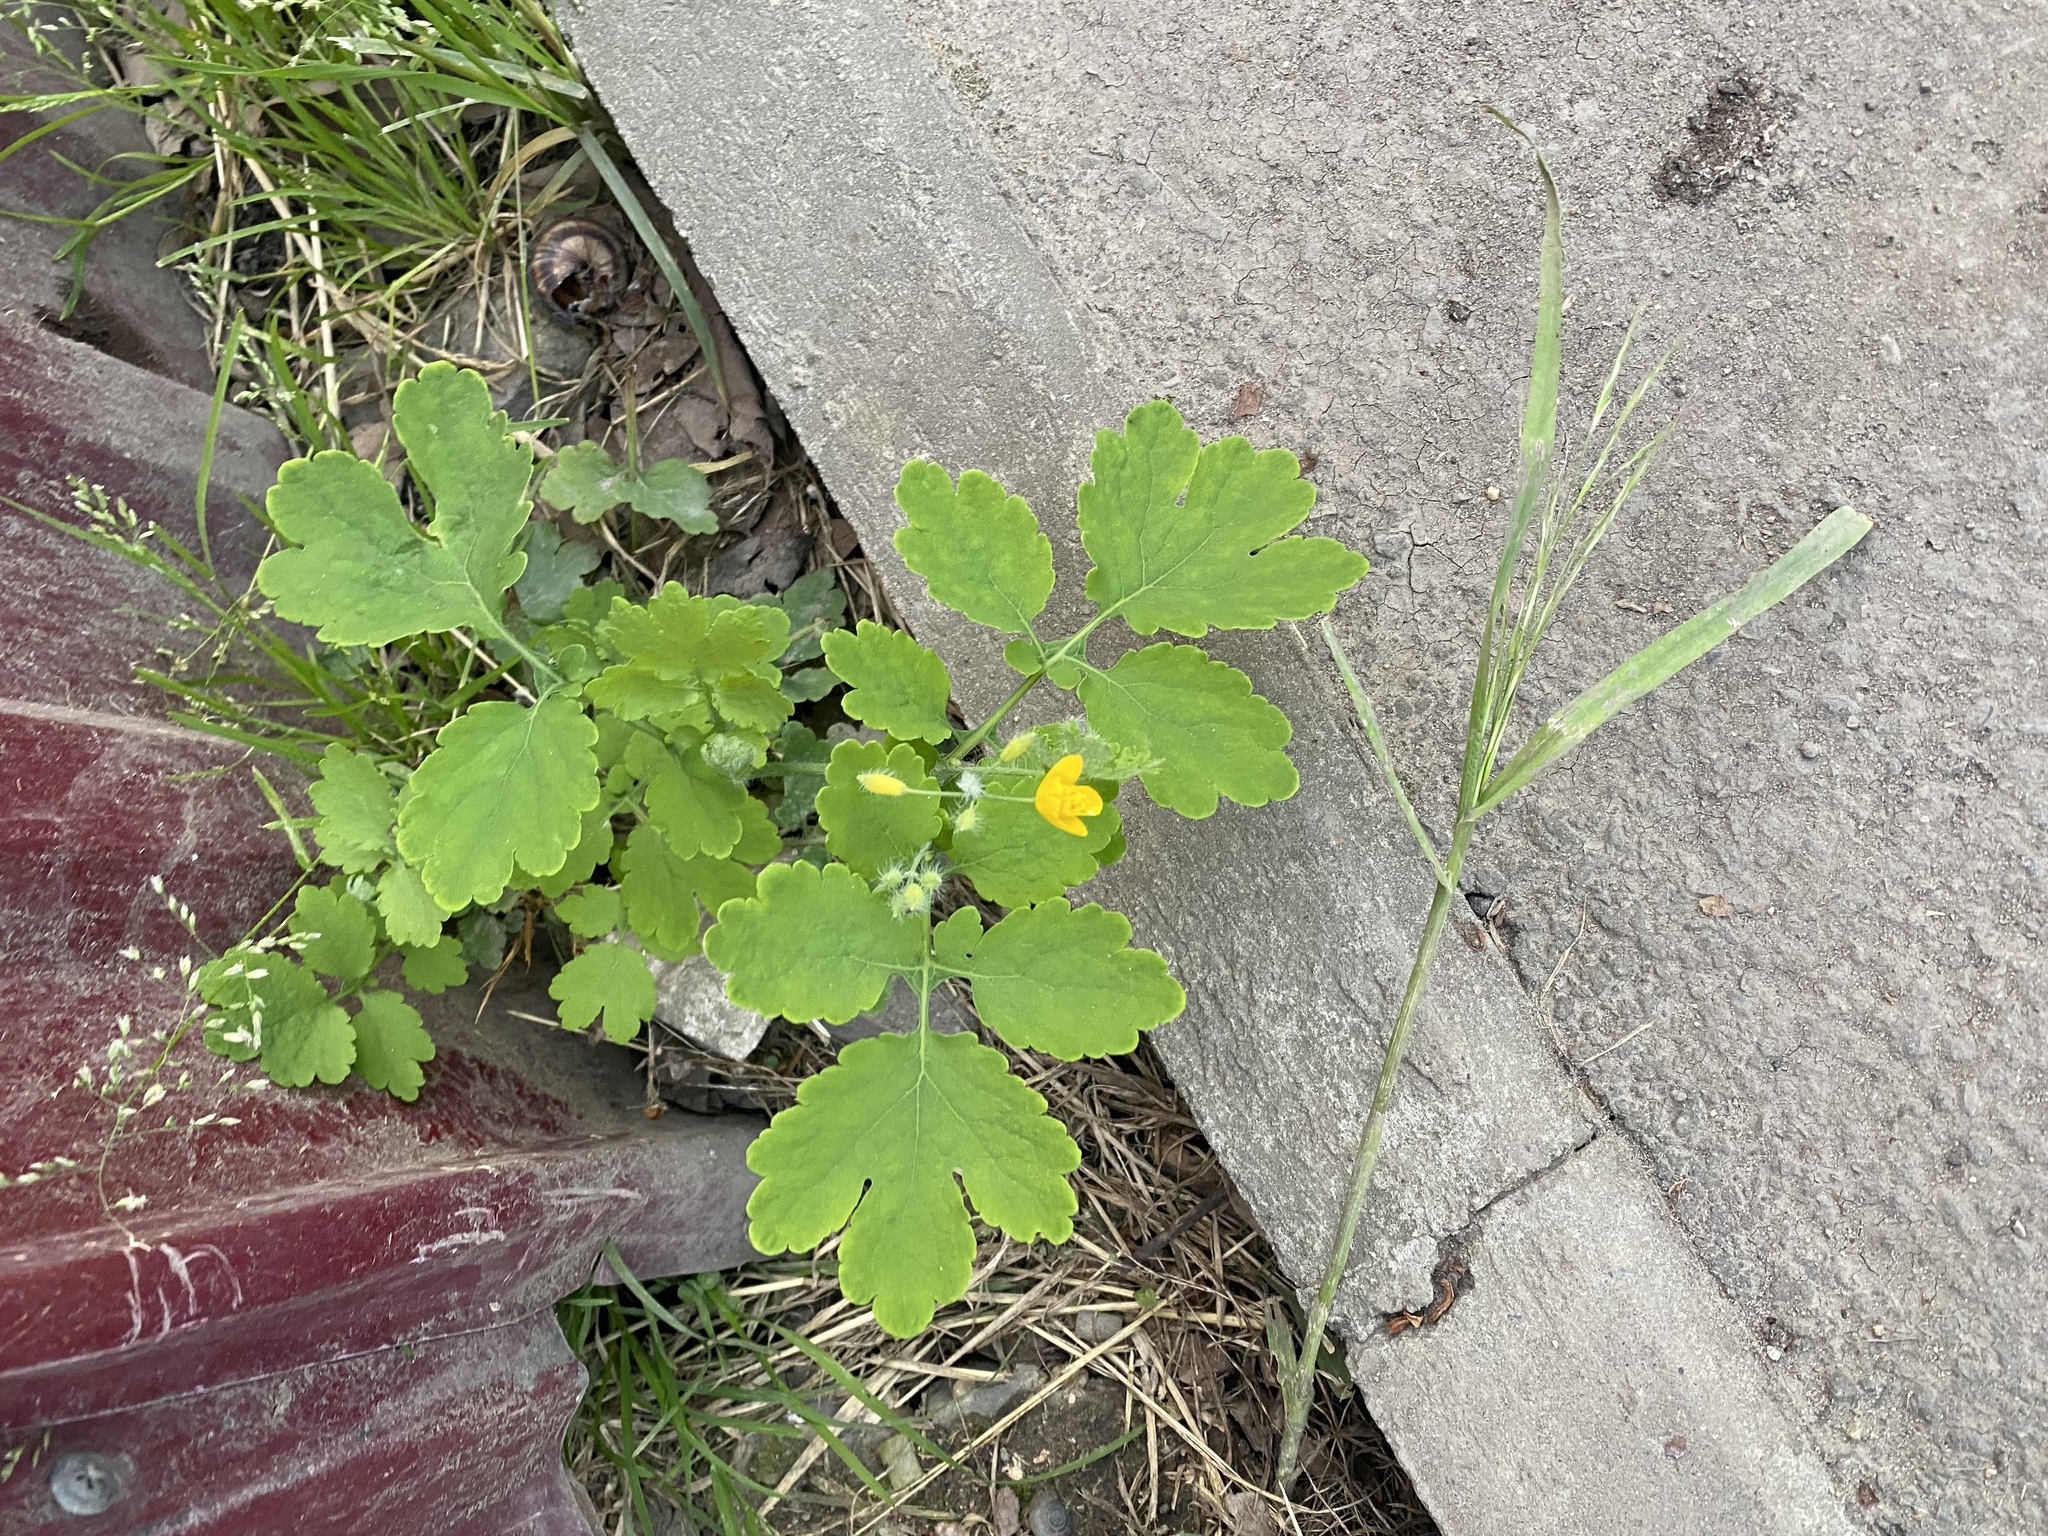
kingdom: Plantae
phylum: Tracheophyta
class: Magnoliopsida
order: Ranunculales
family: Papaveraceae
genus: Chelidonium
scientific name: Chelidonium majus
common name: Greater celandine
